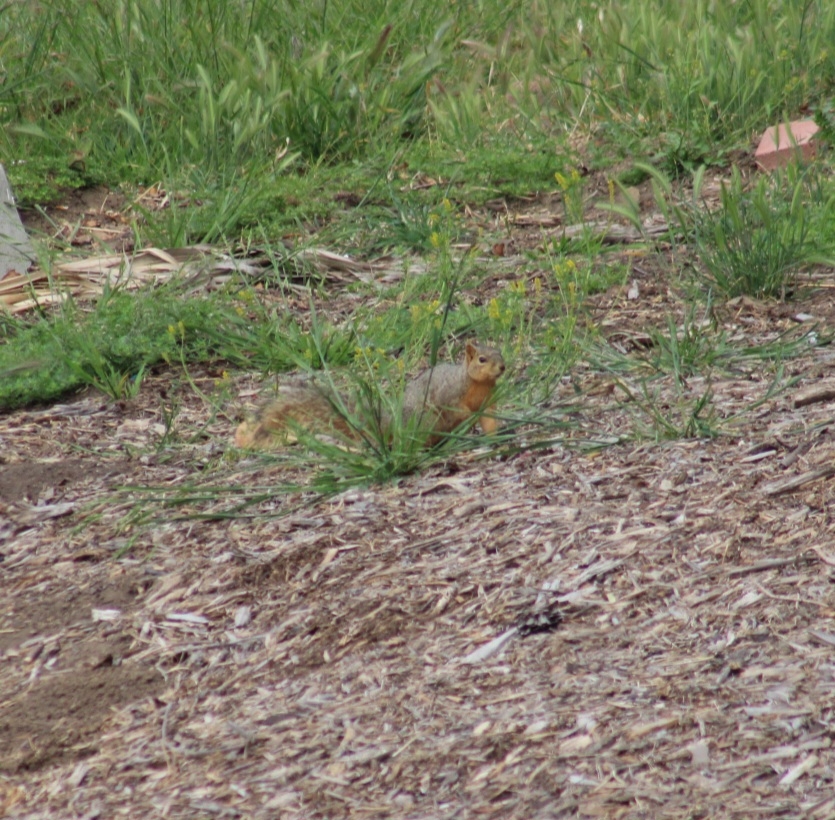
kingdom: Animalia
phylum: Chordata
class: Mammalia
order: Rodentia
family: Sciuridae
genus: Sciurus
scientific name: Sciurus niger
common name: Fox squirrel
